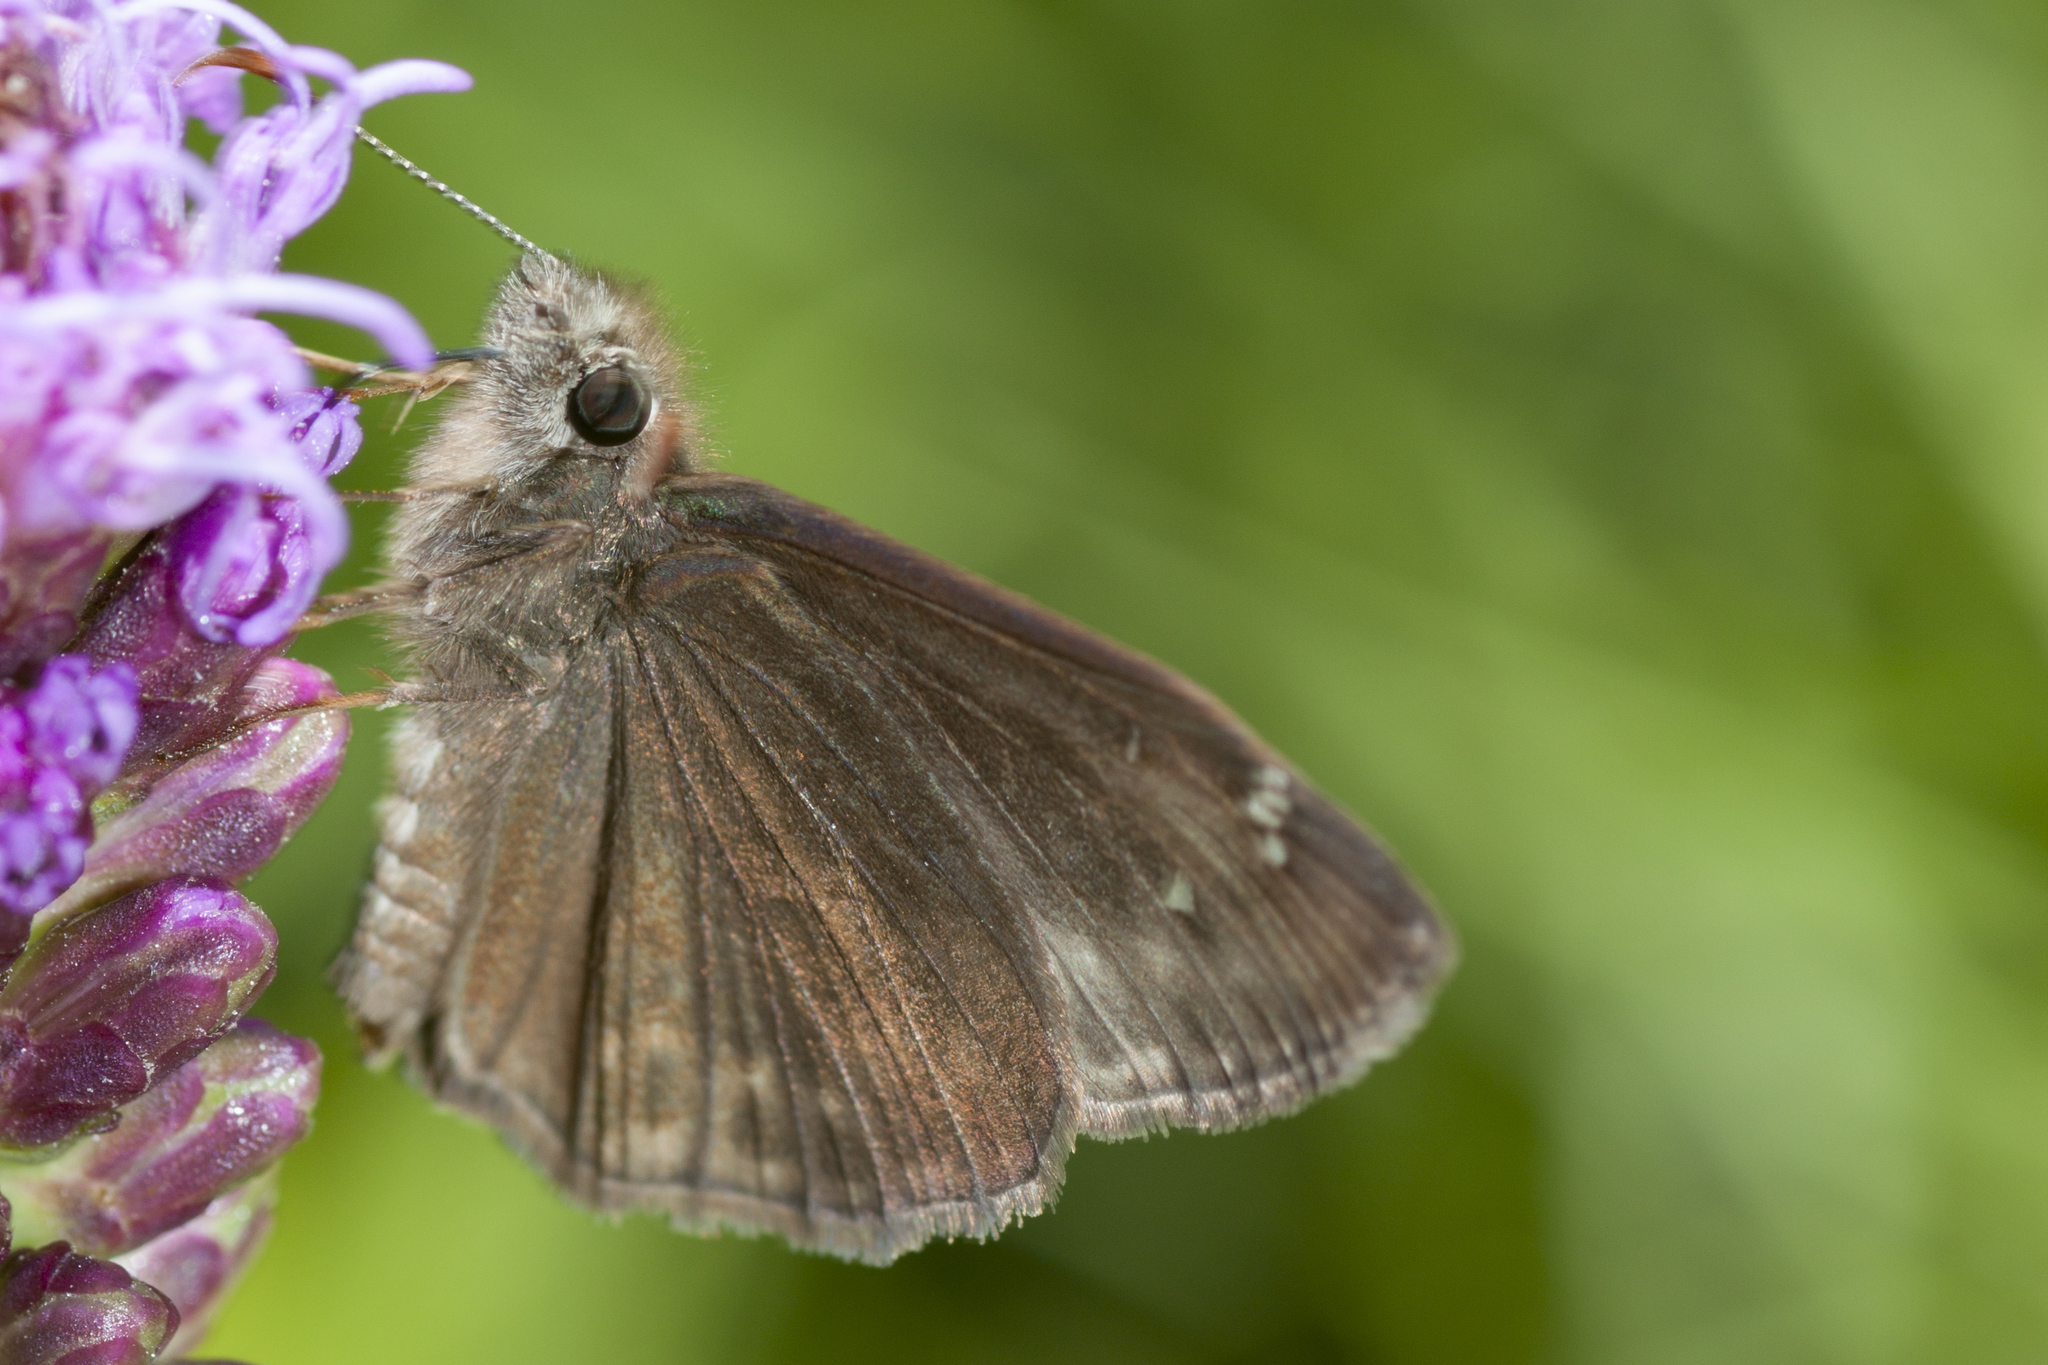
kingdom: Animalia
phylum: Arthropoda
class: Insecta
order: Lepidoptera
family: Hesperiidae
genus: Erynnis
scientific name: Erynnis horatius
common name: Horace's duskywing
